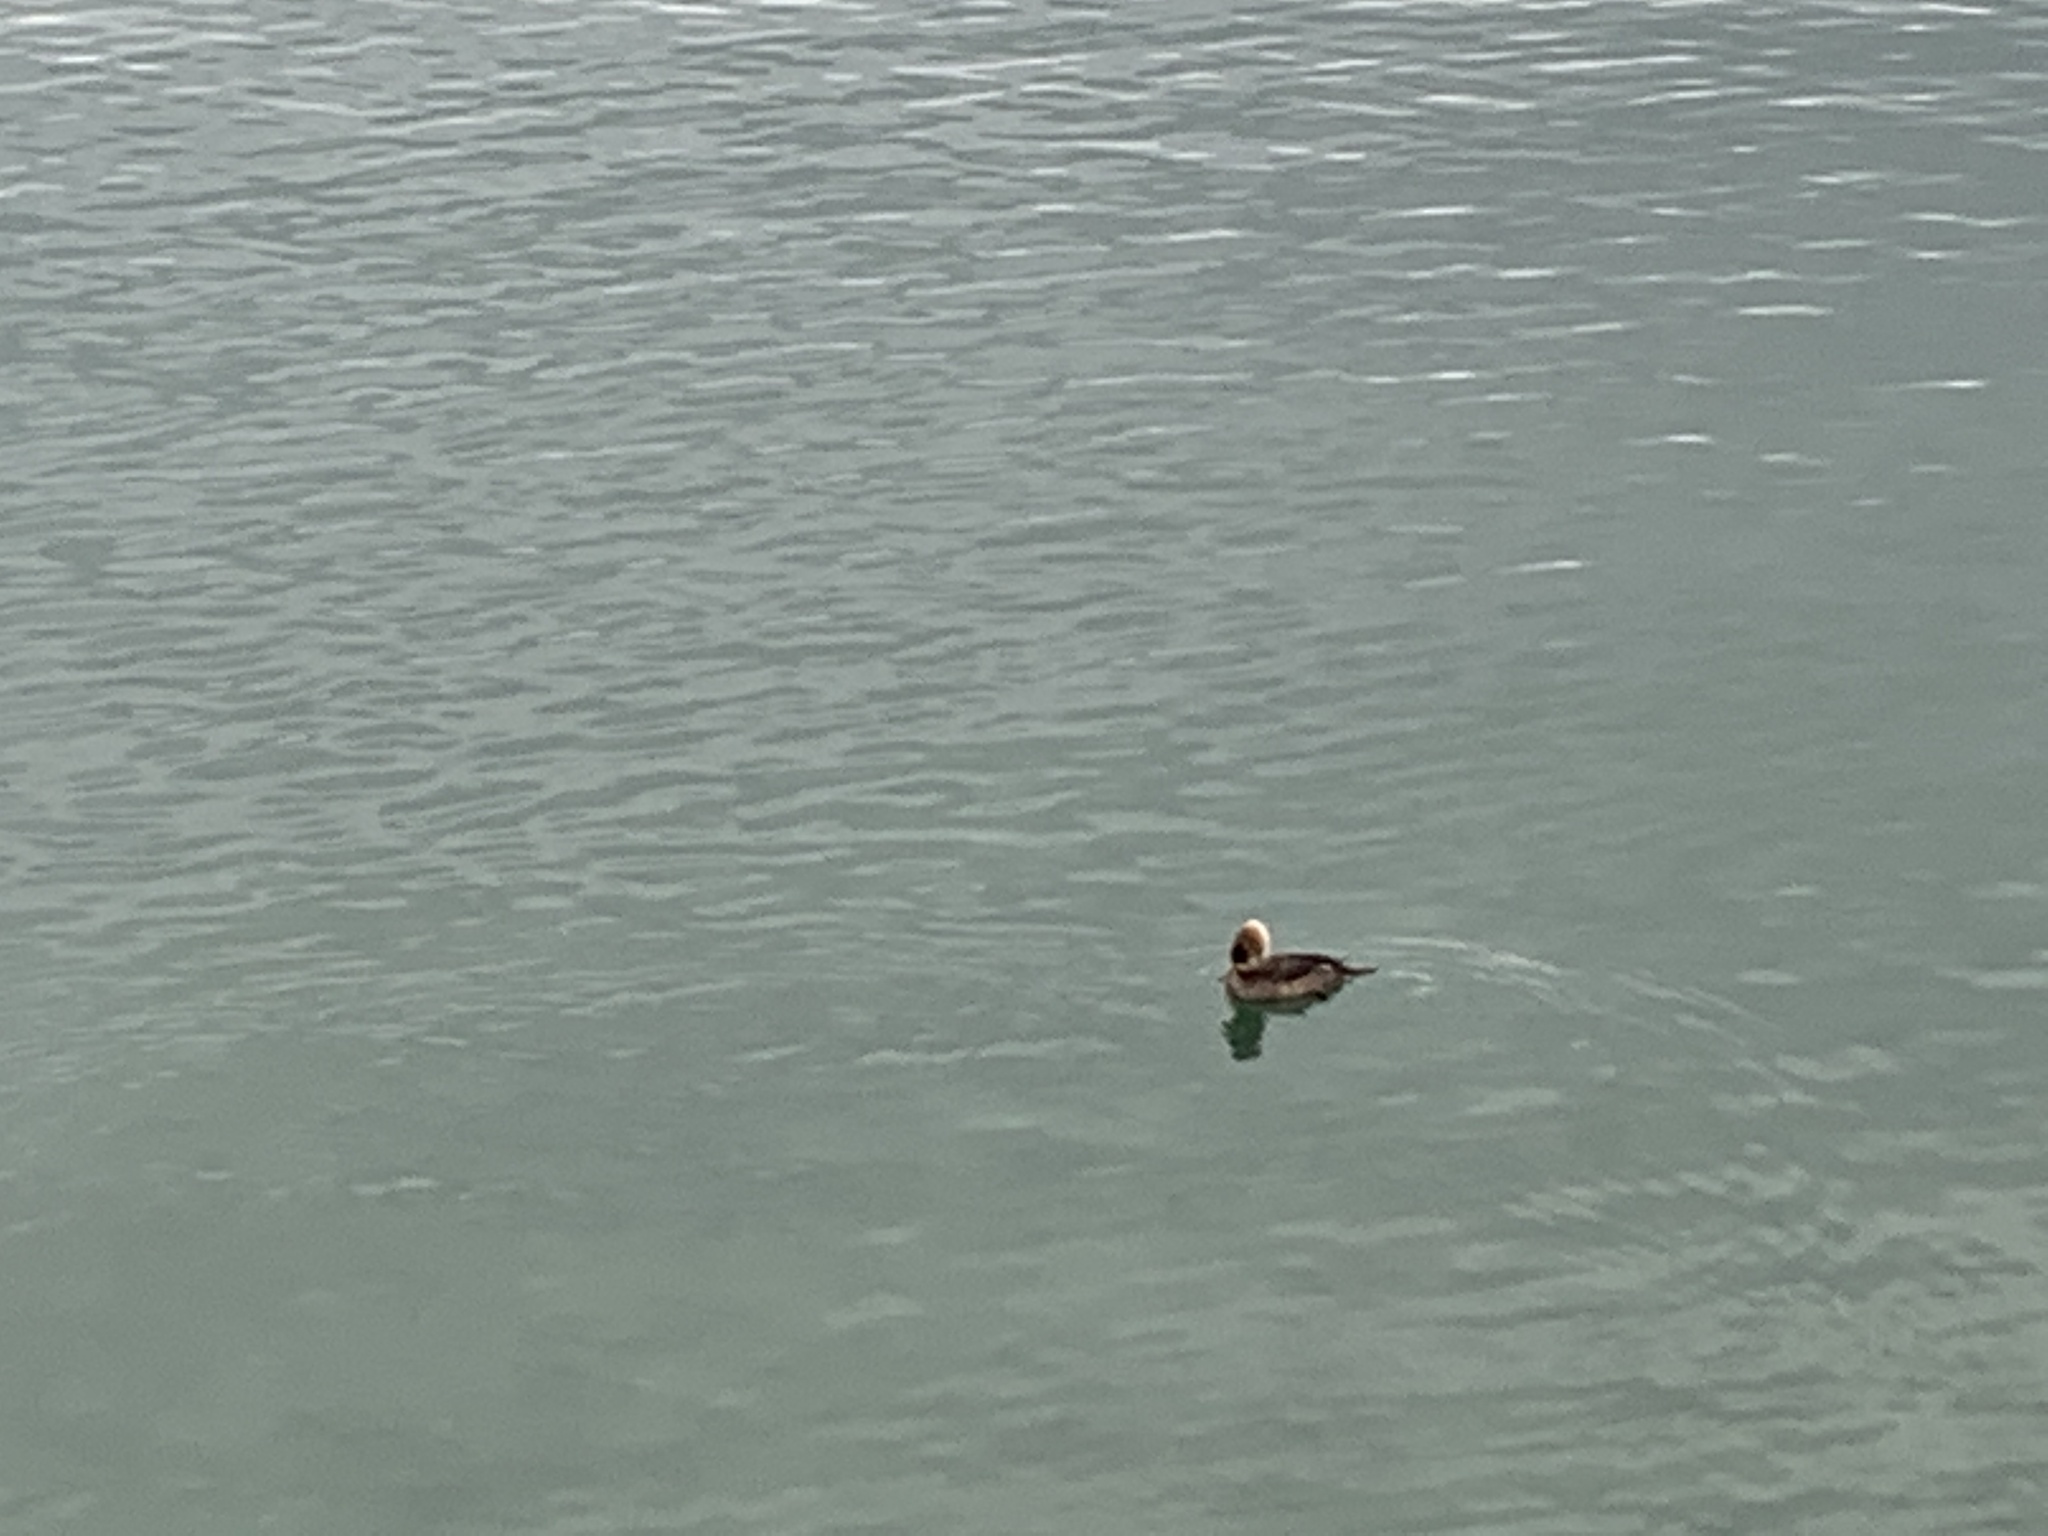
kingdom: Animalia
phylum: Chordata
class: Aves
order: Anseriformes
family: Anatidae
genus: Lophodytes
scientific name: Lophodytes cucullatus
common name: Hooded merganser
